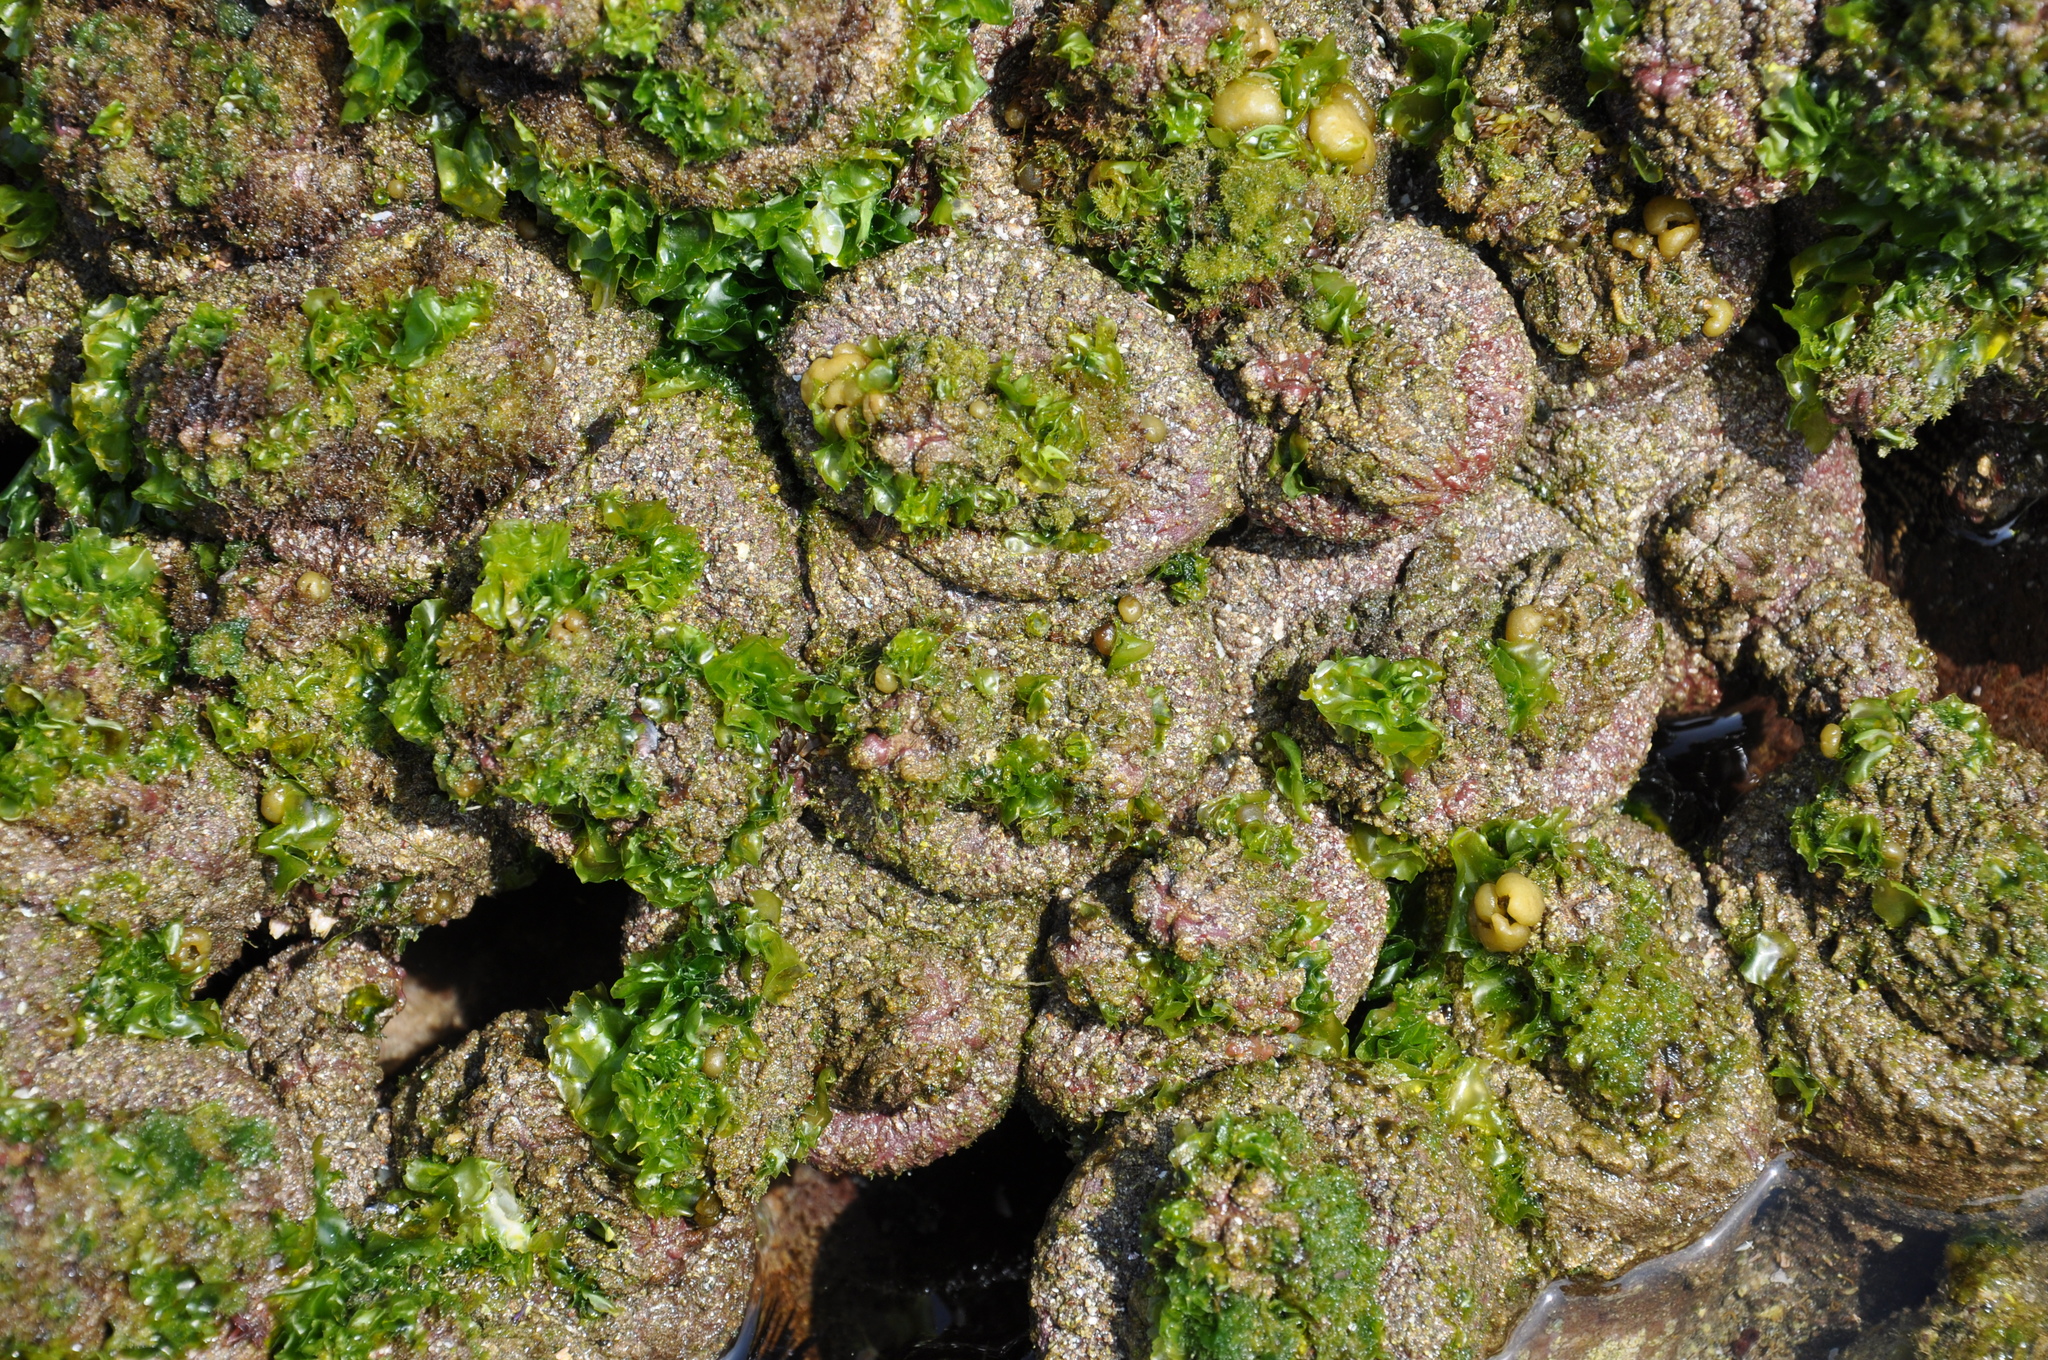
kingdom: Animalia
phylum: Chordata
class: Ascidiacea
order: Stolidobranchia
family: Pyuridae
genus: Pyura
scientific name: Pyura praeputialis
